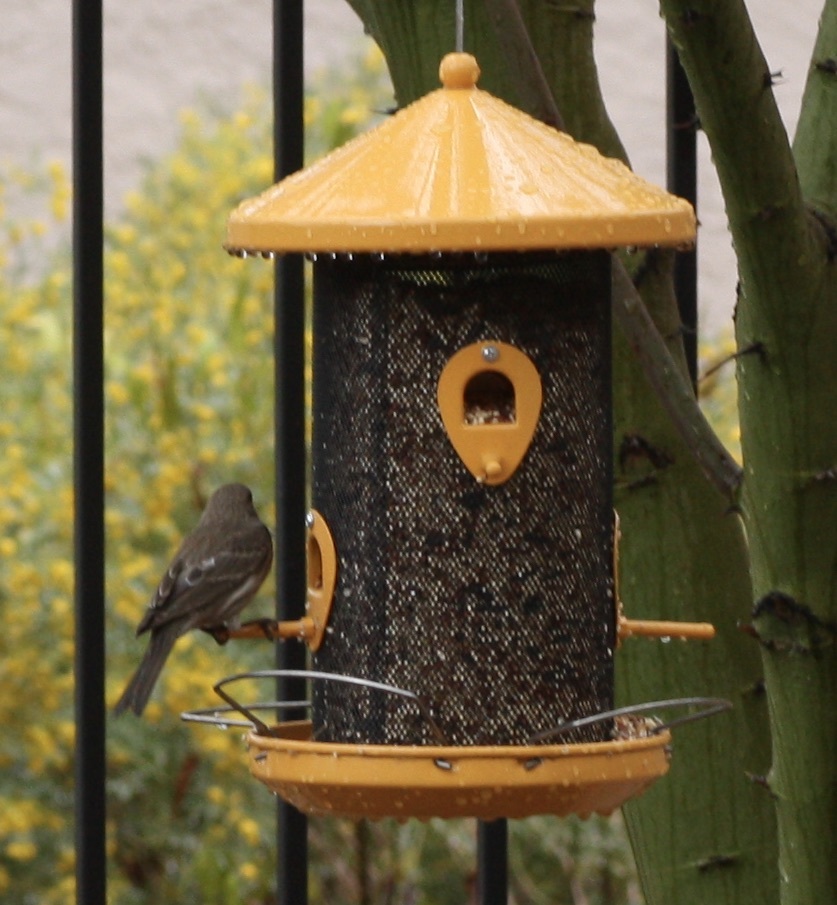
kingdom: Animalia
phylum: Chordata
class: Aves
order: Passeriformes
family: Fringillidae
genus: Haemorhous
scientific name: Haemorhous mexicanus
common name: House finch
